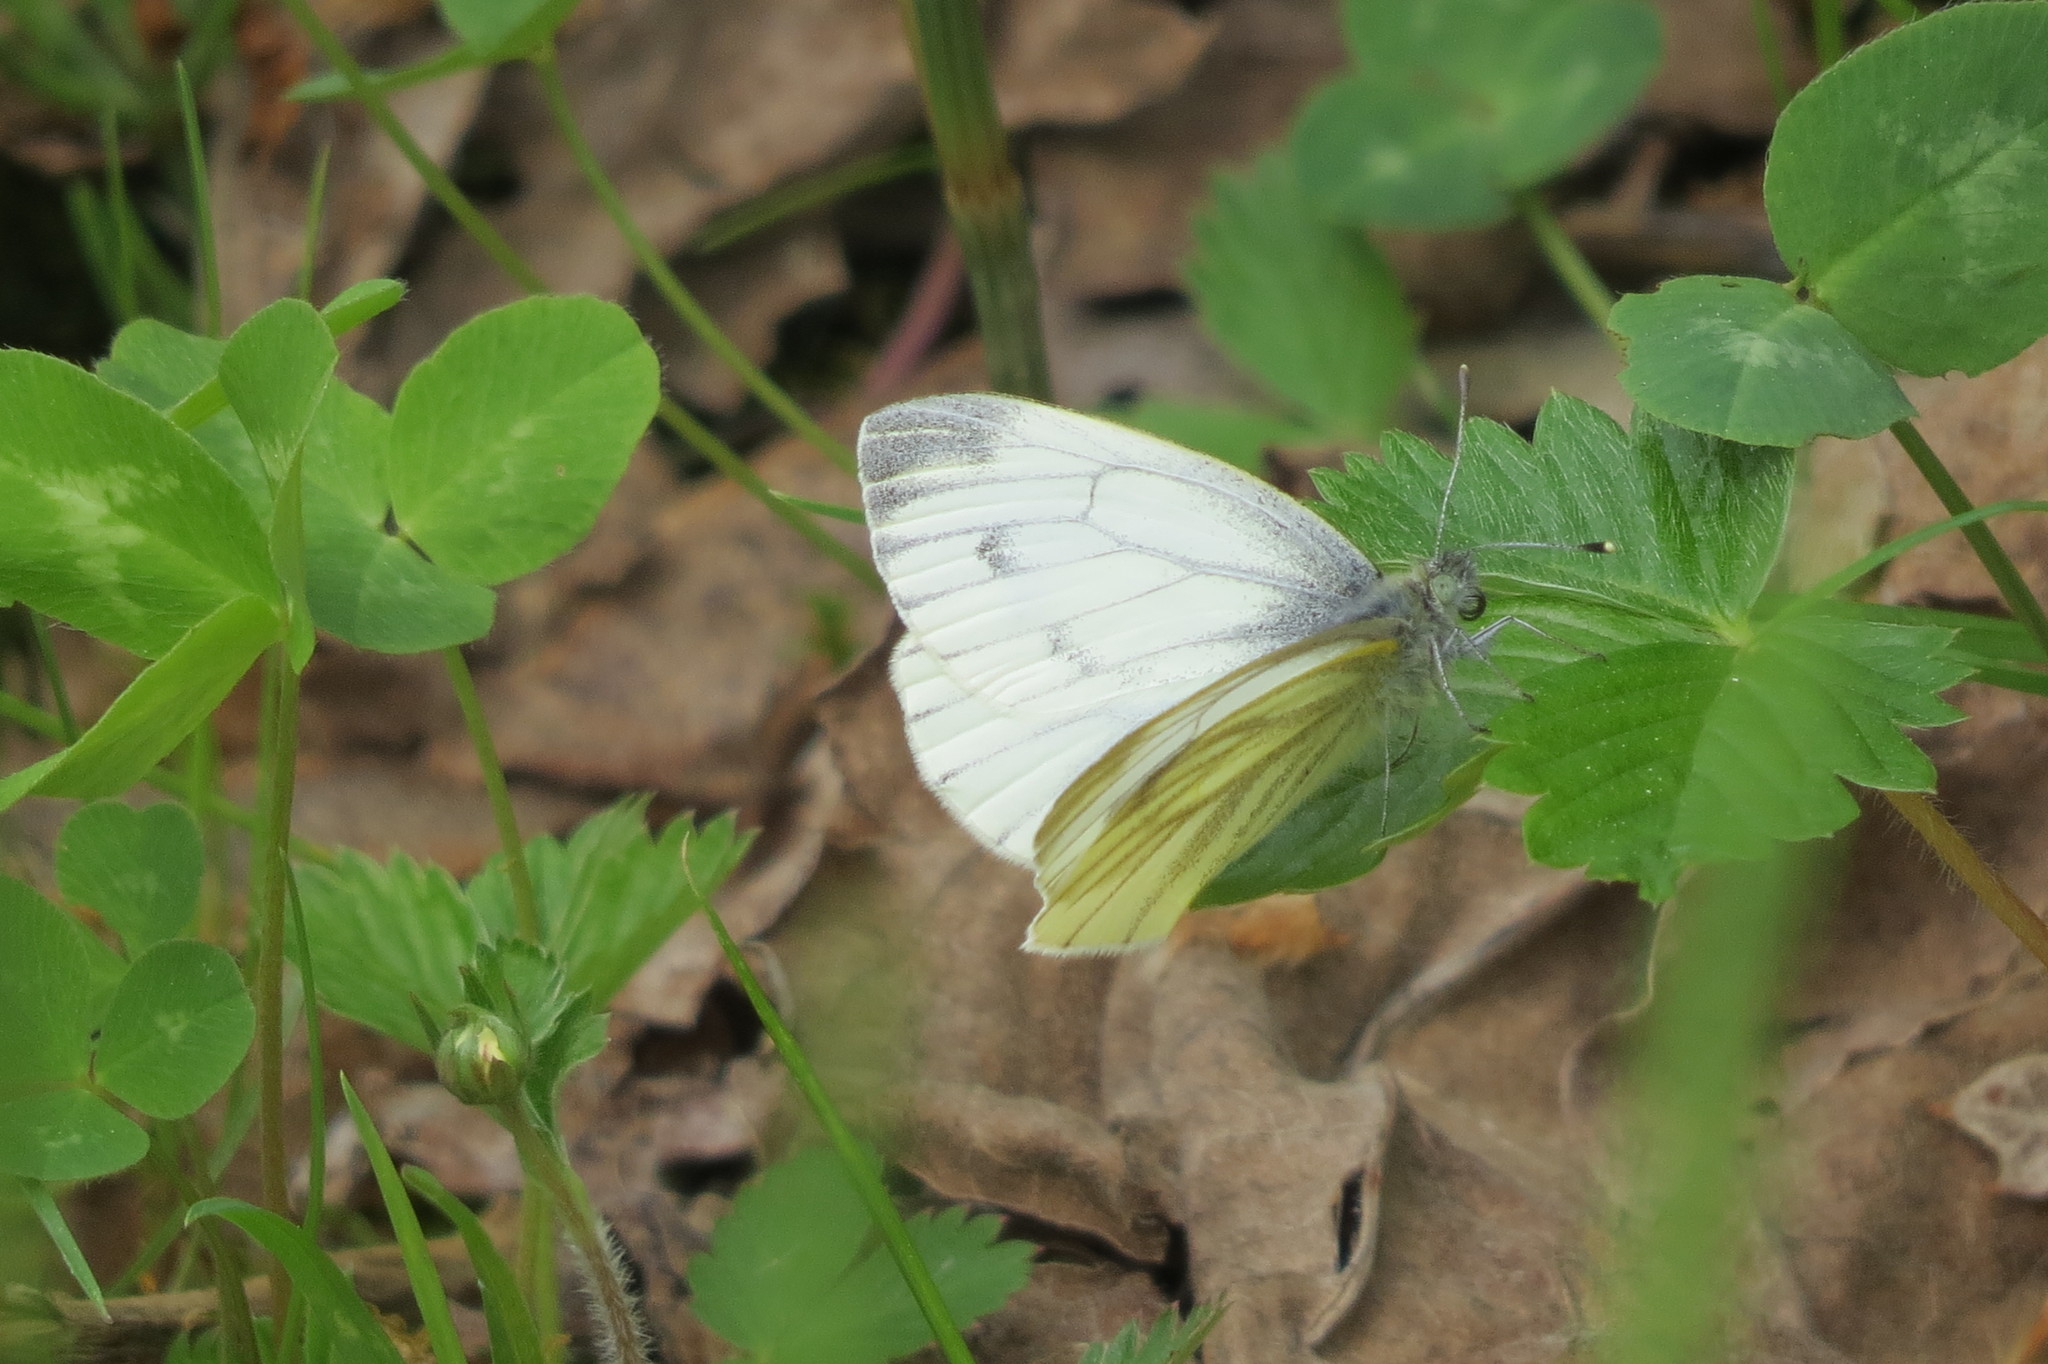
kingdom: Animalia
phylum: Arthropoda
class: Insecta
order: Lepidoptera
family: Pieridae
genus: Pieris
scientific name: Pieris napi
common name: Green-veined white
